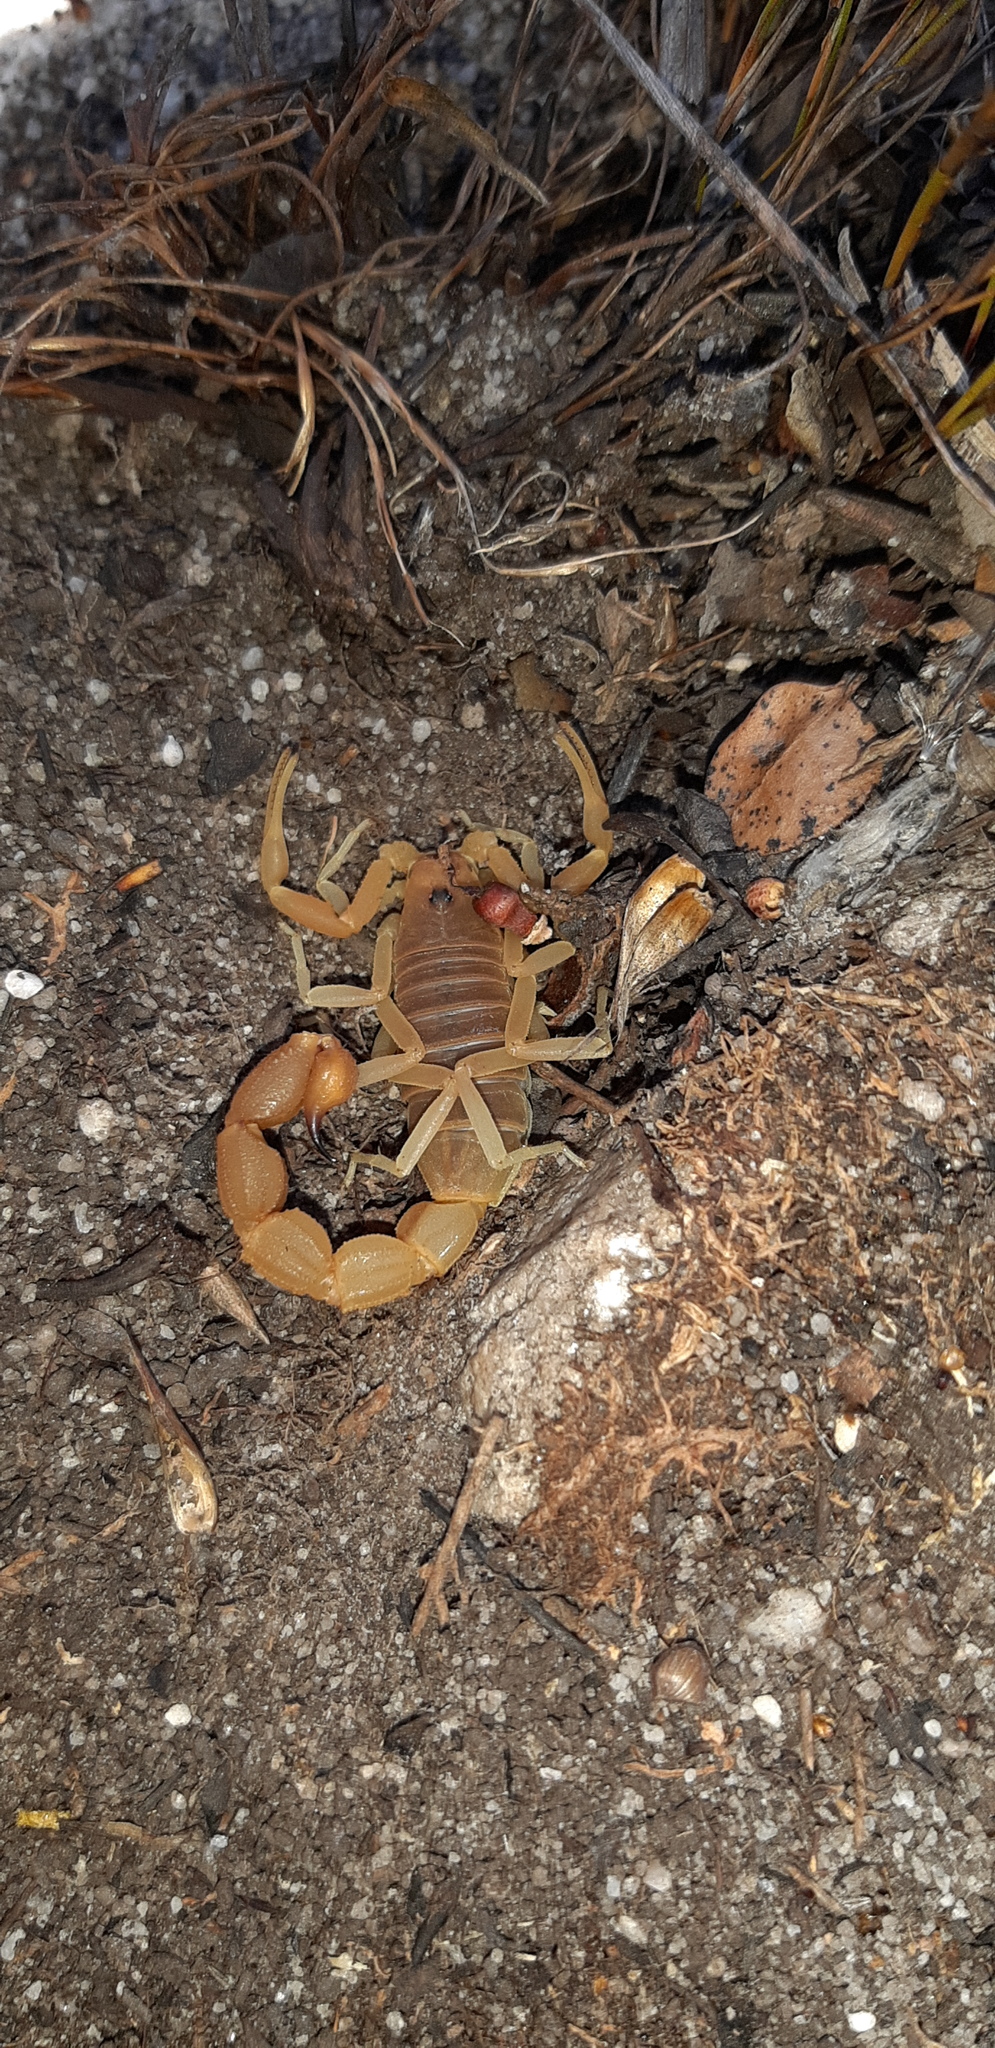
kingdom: Animalia
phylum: Arthropoda
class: Arachnida
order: Scorpiones
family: Buthidae
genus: Parabuthus
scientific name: Parabuthus planicauda
